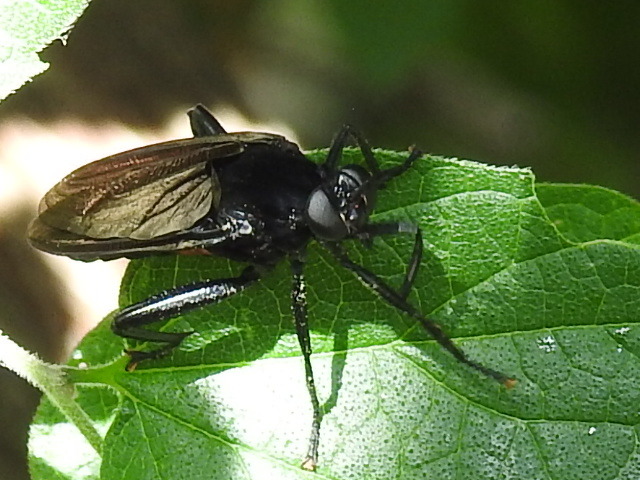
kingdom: Animalia
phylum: Arthropoda
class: Insecta
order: Diptera
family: Mydidae
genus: Mydas
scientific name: Mydas clavatus
